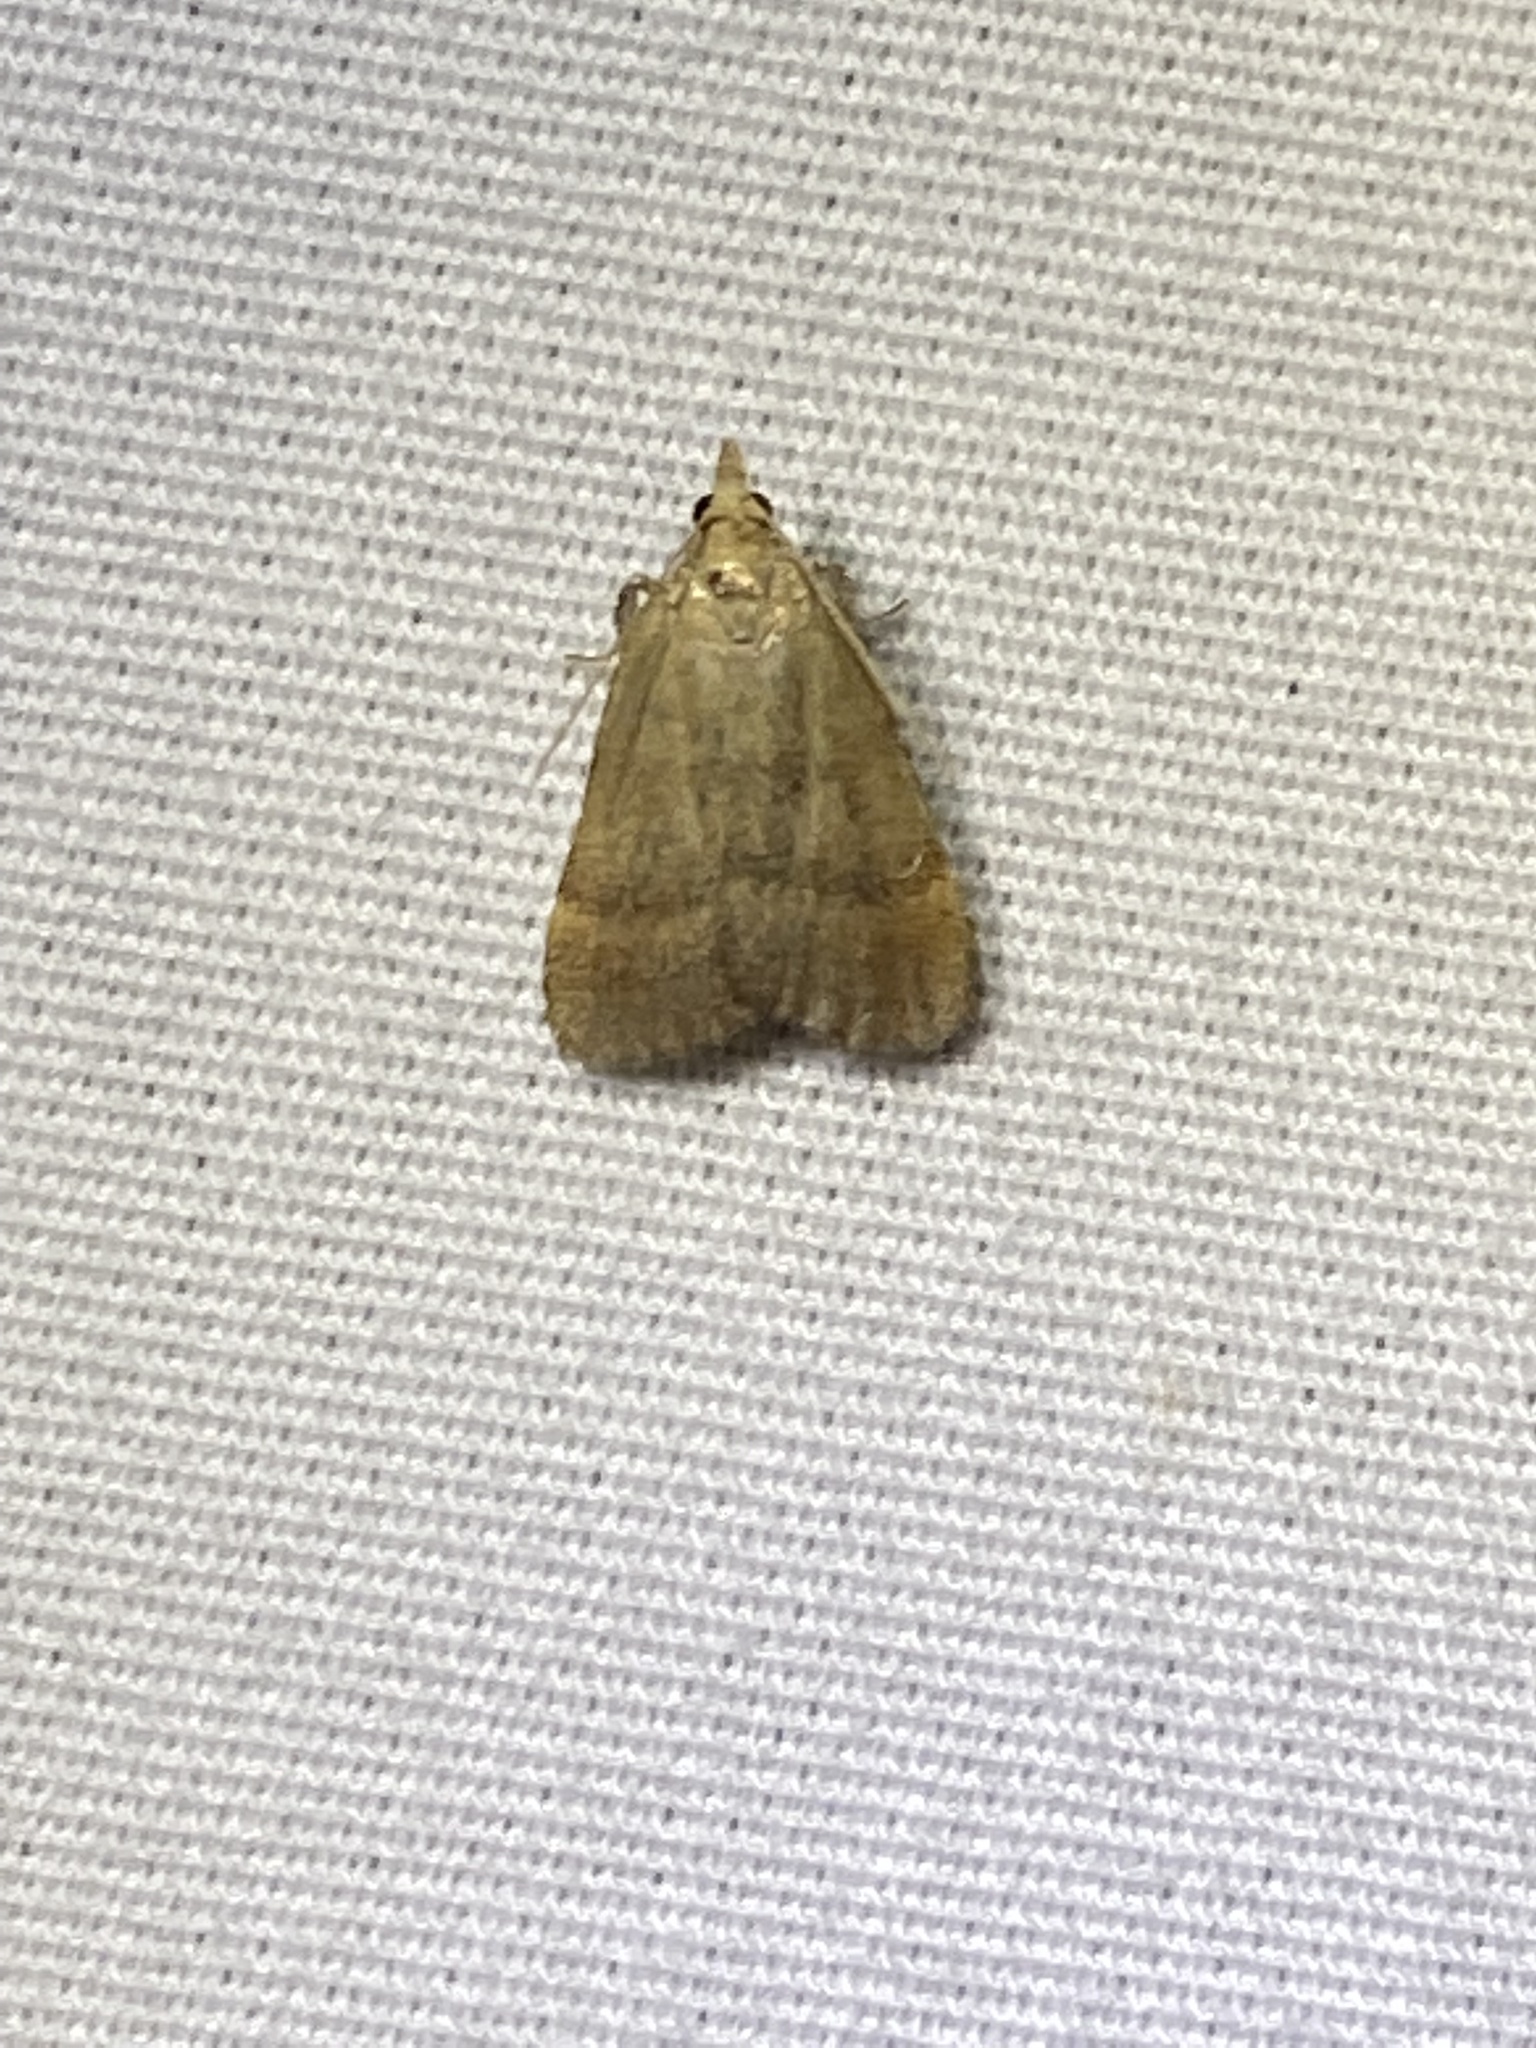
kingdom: Animalia
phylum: Arthropoda
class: Insecta
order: Lepidoptera
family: Pyralidae
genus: Condylolomia
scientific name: Condylolomia participialis
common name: Drab condylolomia moth
